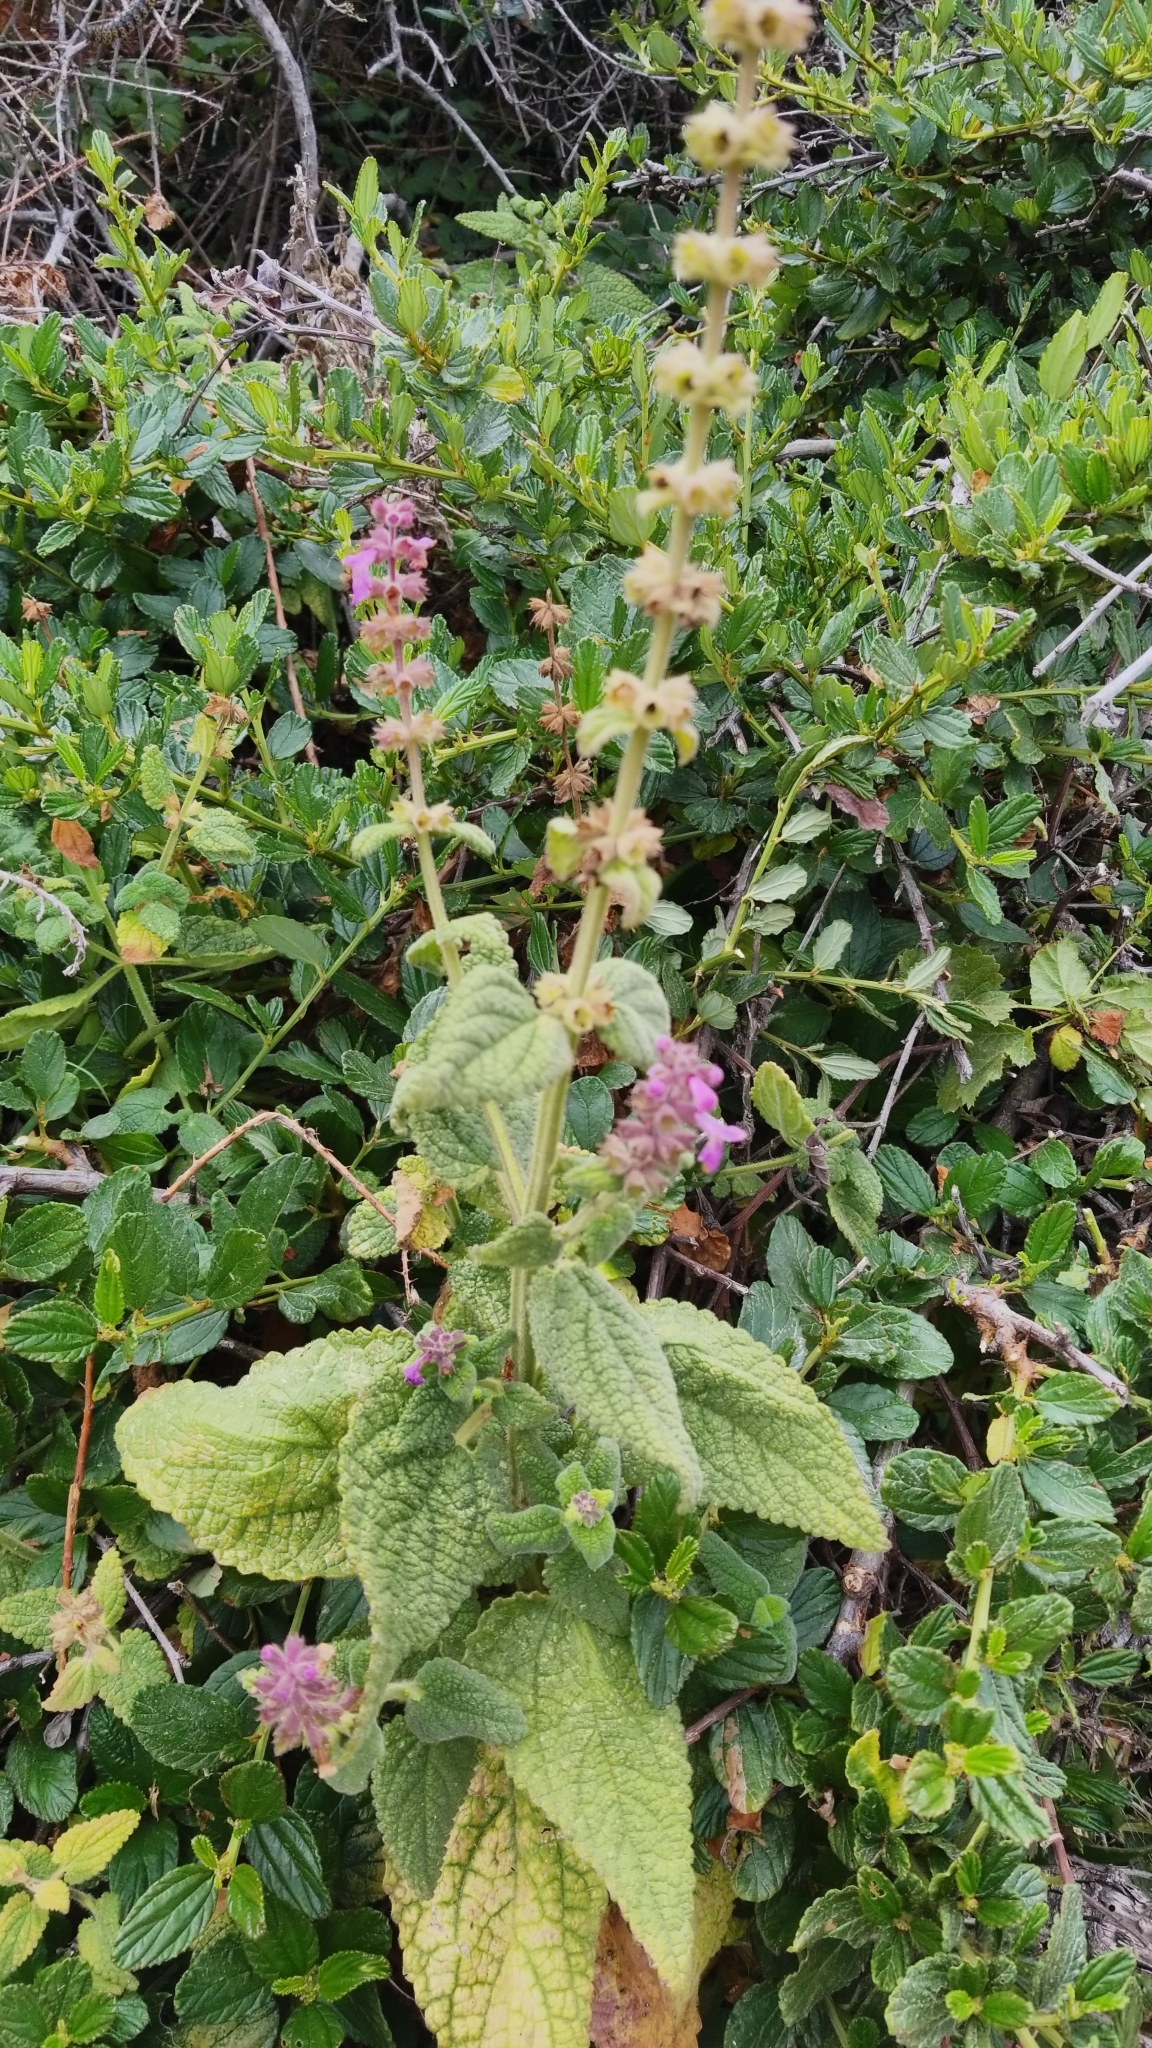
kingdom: Plantae
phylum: Tracheophyta
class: Magnoliopsida
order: Lamiales
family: Lamiaceae
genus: Stachys
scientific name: Stachys bullata
